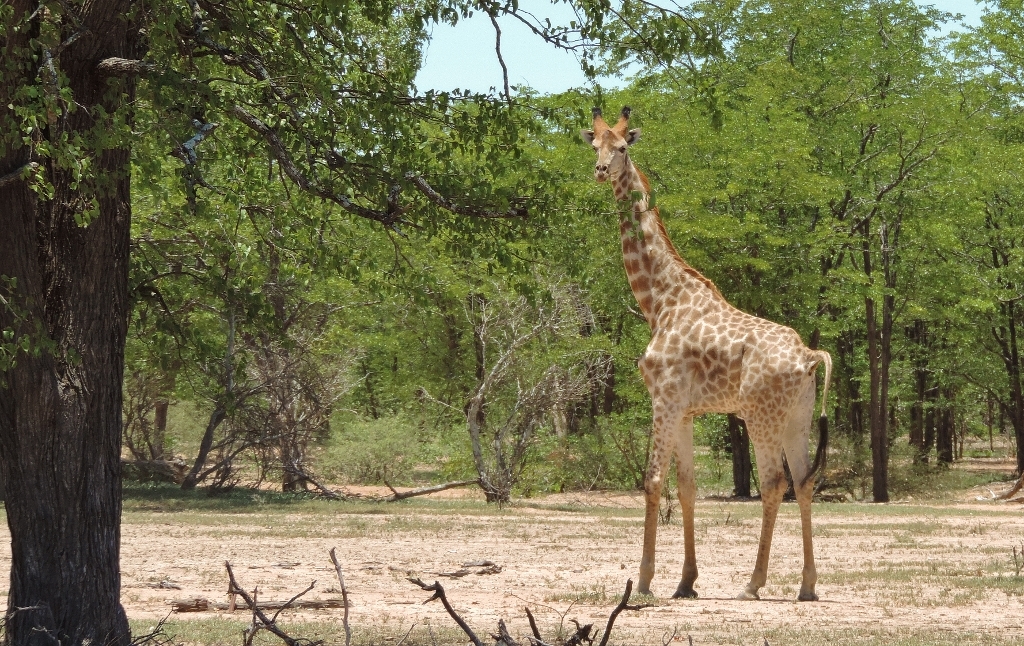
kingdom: Animalia
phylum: Chordata
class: Mammalia
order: Artiodactyla
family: Giraffidae
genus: Giraffa
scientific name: Giraffa giraffa
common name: Southern giraffe
